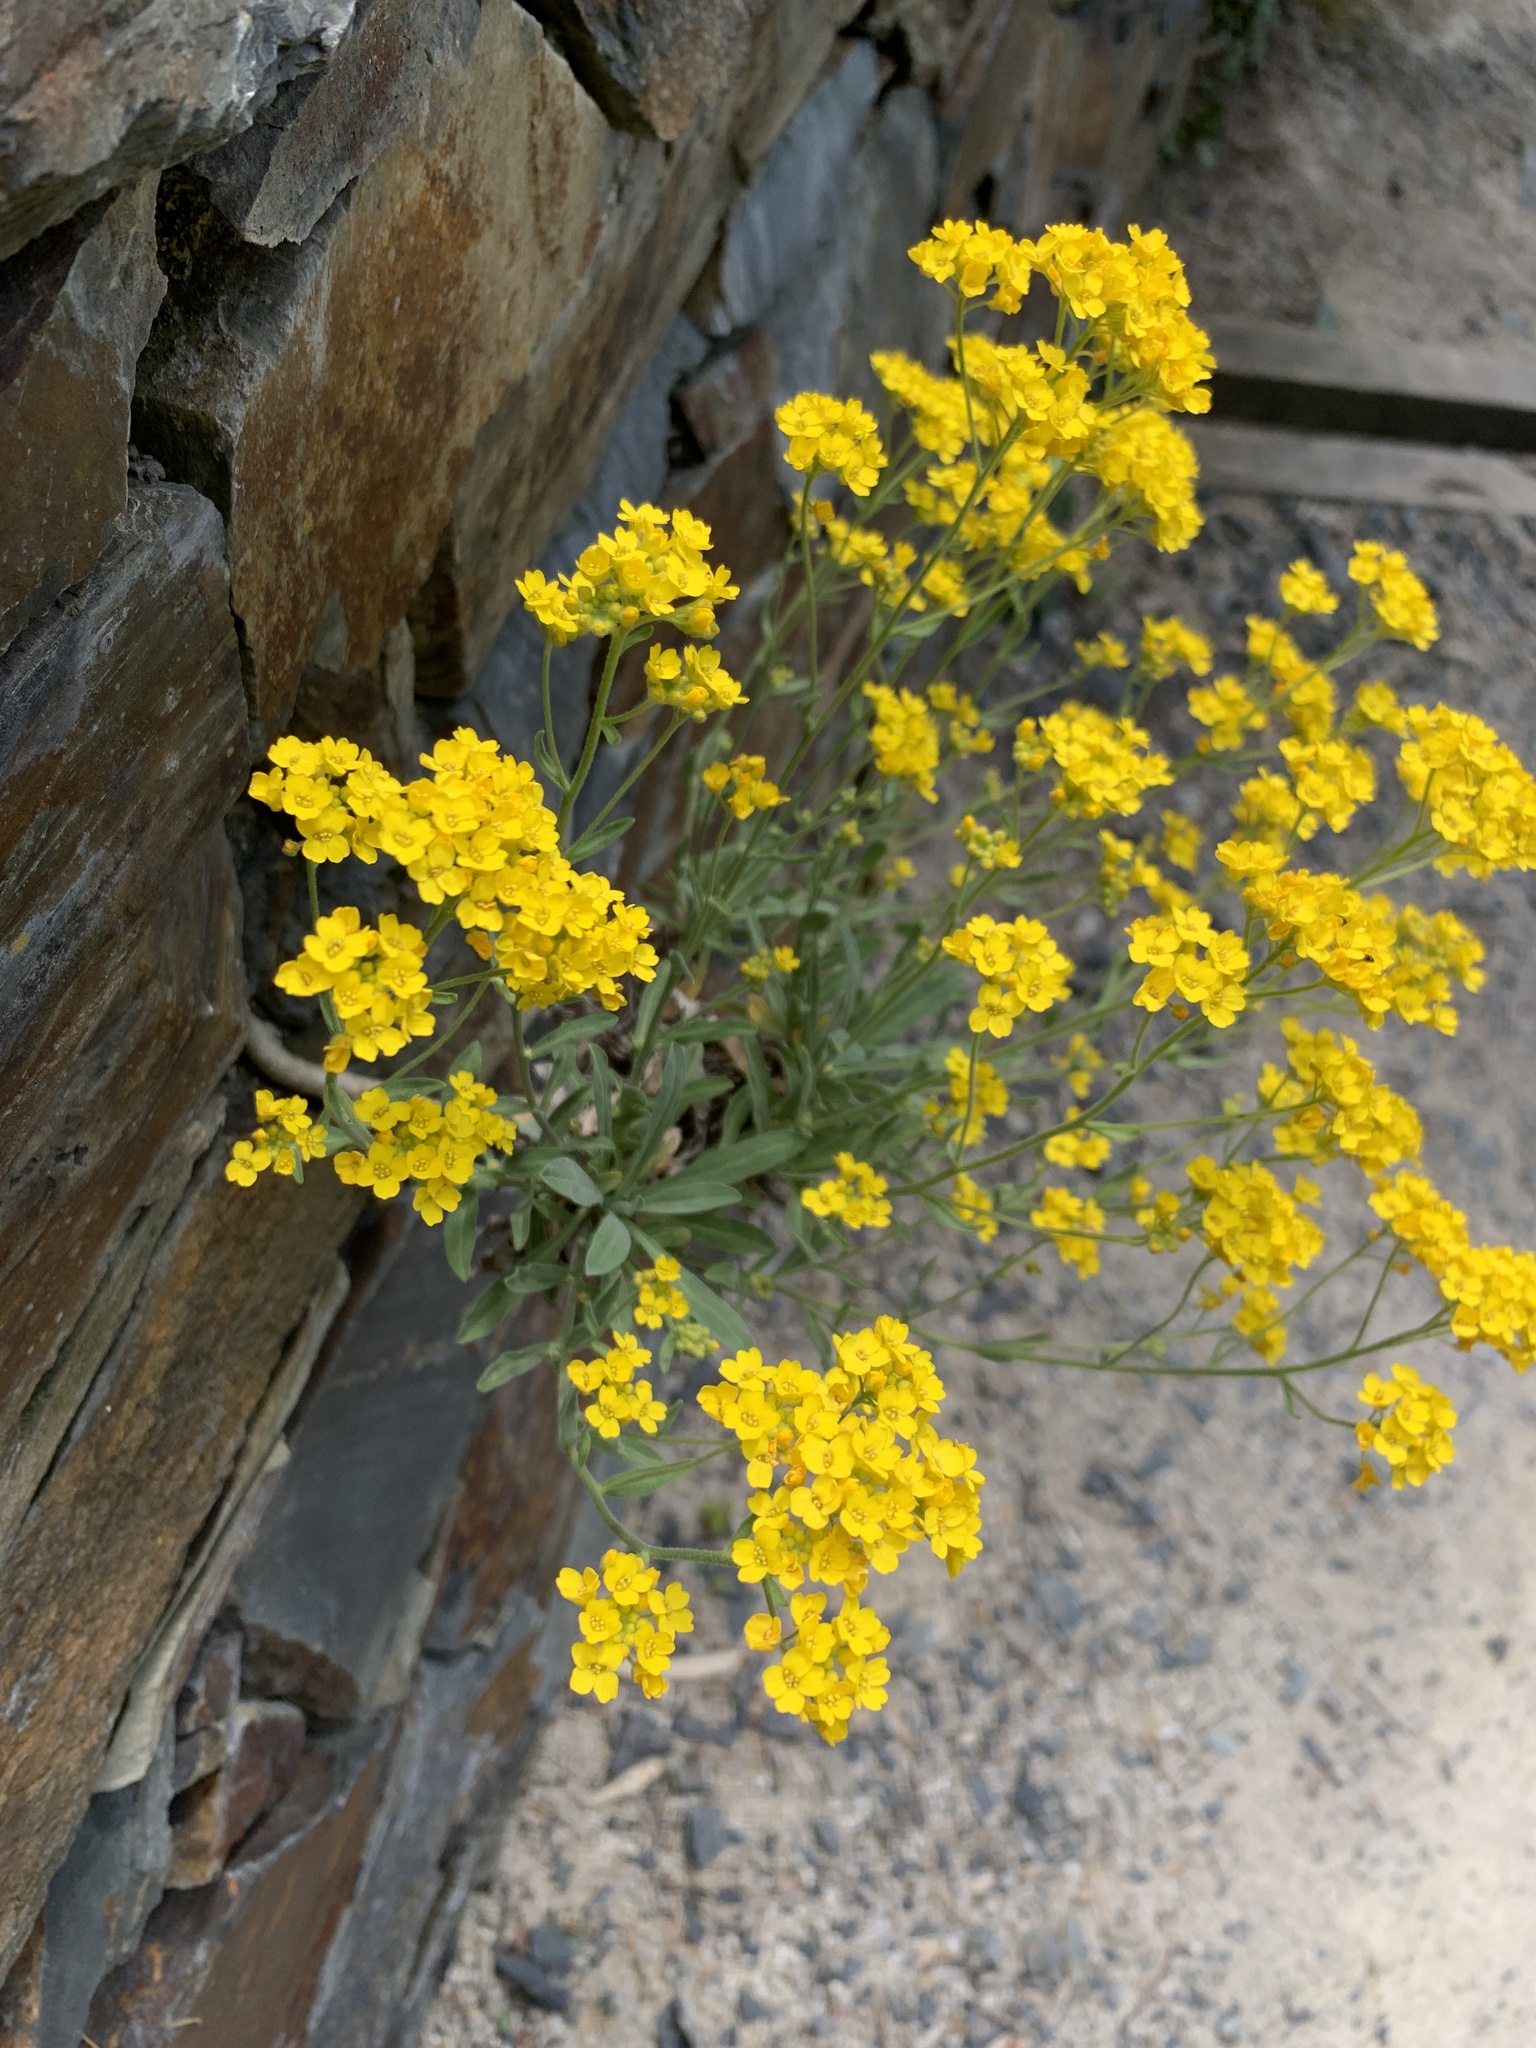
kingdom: Plantae
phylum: Tracheophyta
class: Magnoliopsida
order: Brassicales
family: Brassicaceae
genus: Aurinia
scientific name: Aurinia saxatilis
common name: Golden-tuft alyssum
